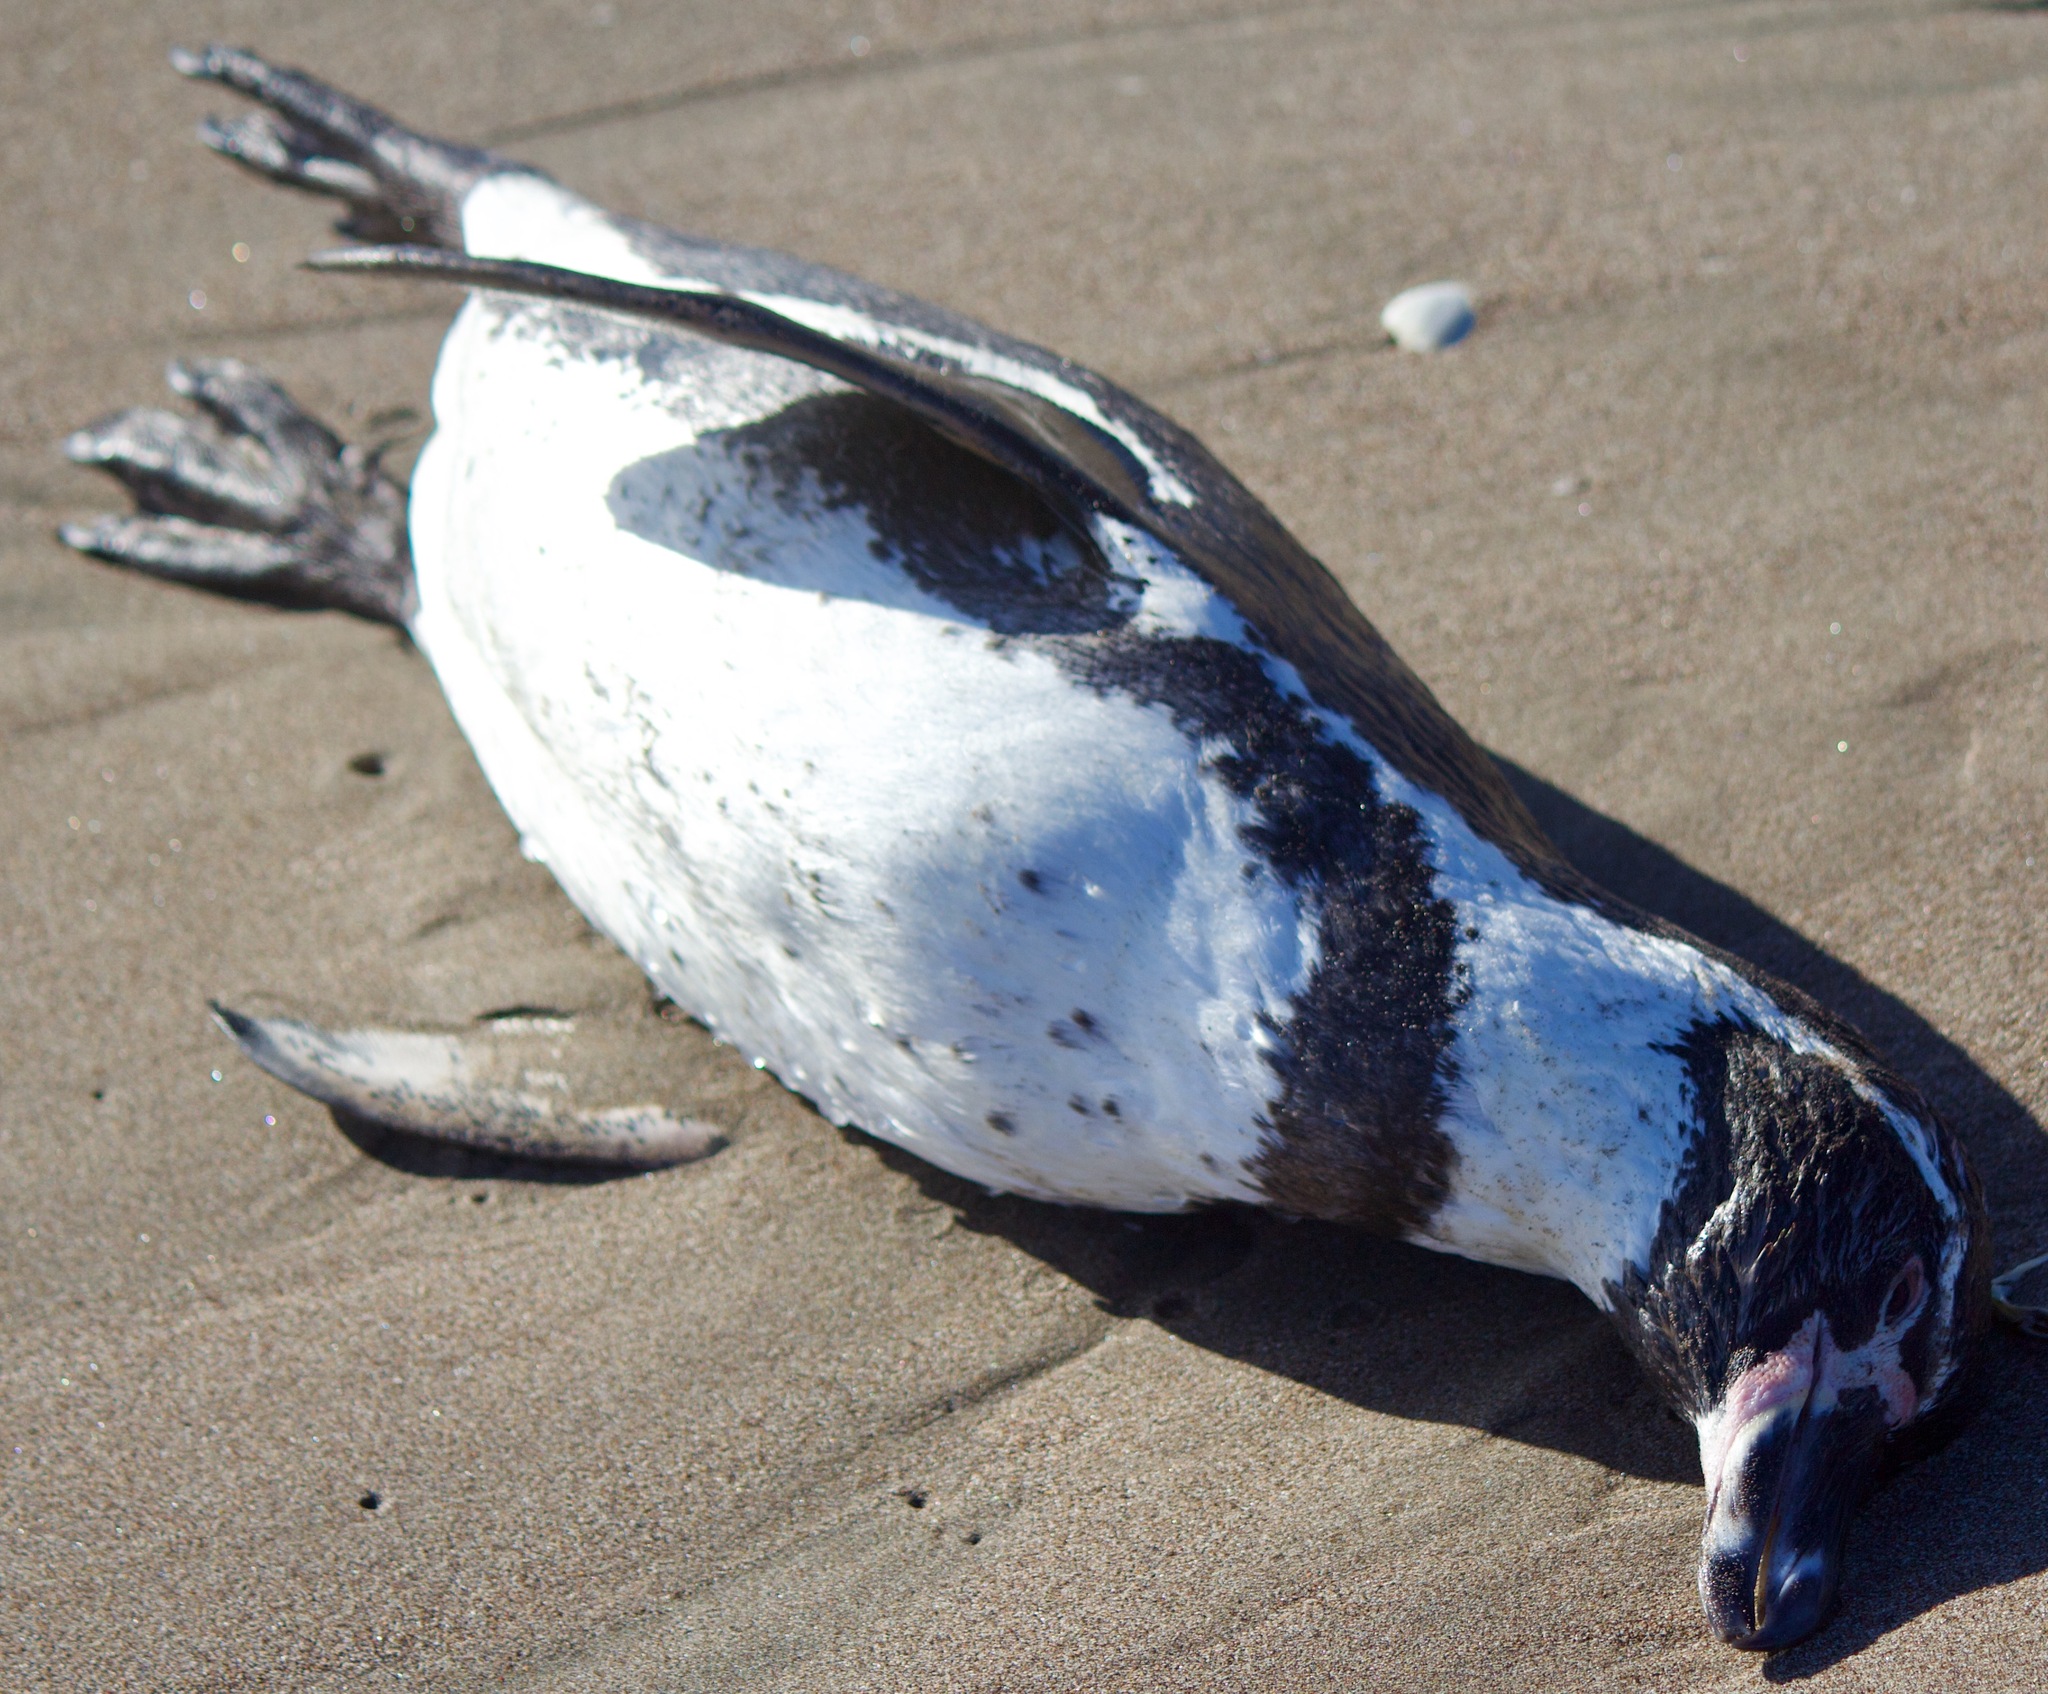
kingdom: Animalia
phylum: Chordata
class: Aves
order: Sphenisciformes
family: Spheniscidae
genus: Spheniscus
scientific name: Spheniscus humboldti
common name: Humboldt penguin
